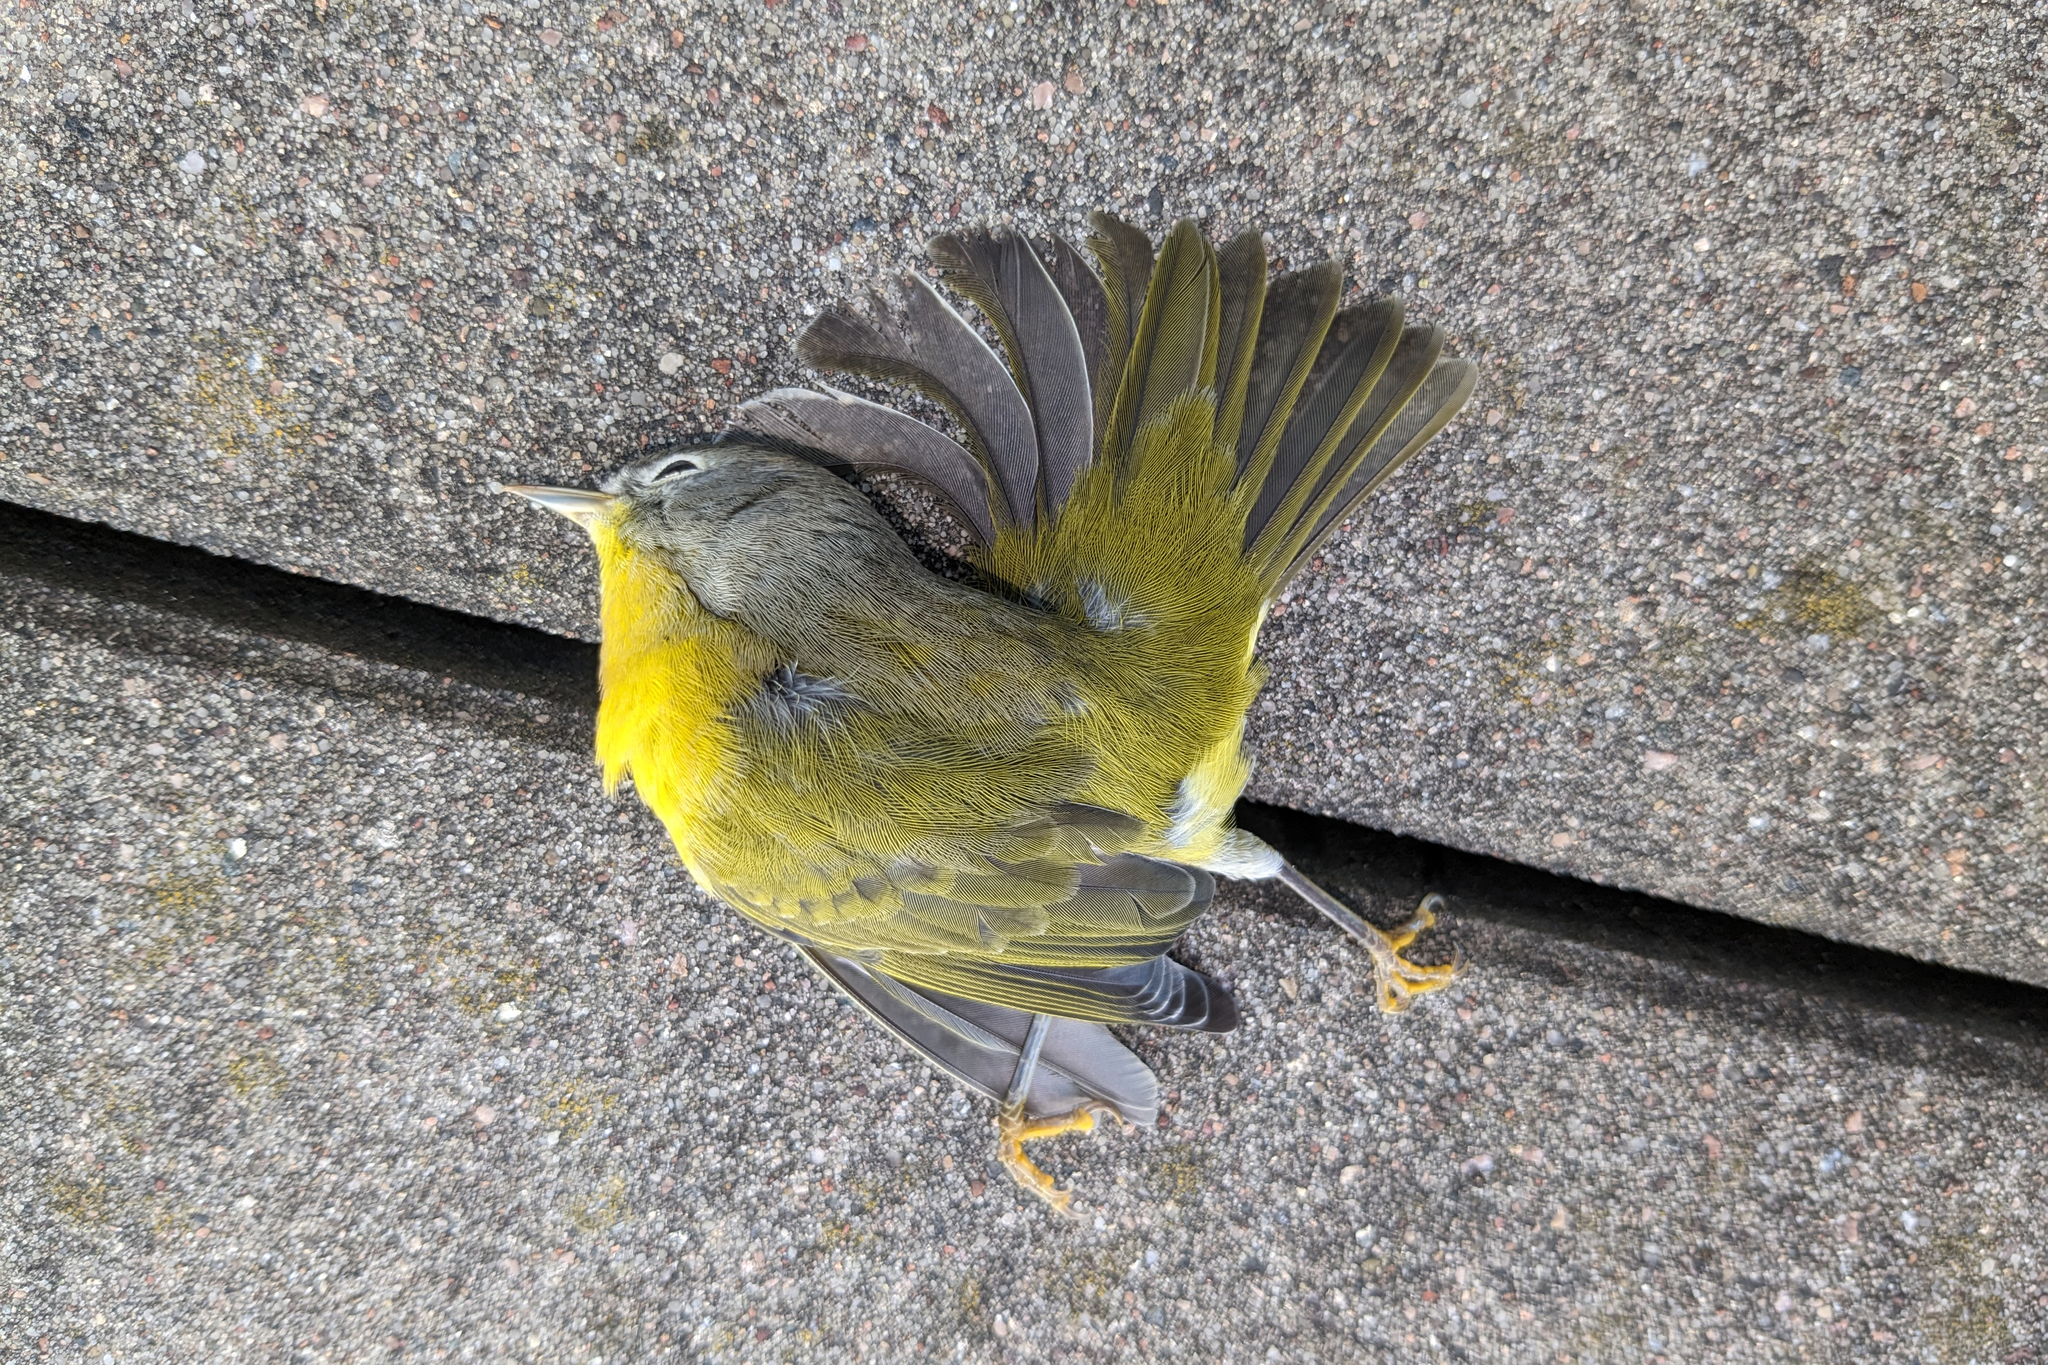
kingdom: Animalia
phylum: Chordata
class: Aves
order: Passeriformes
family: Parulidae
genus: Leiothlypis
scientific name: Leiothlypis ruficapilla
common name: Nashville warbler
